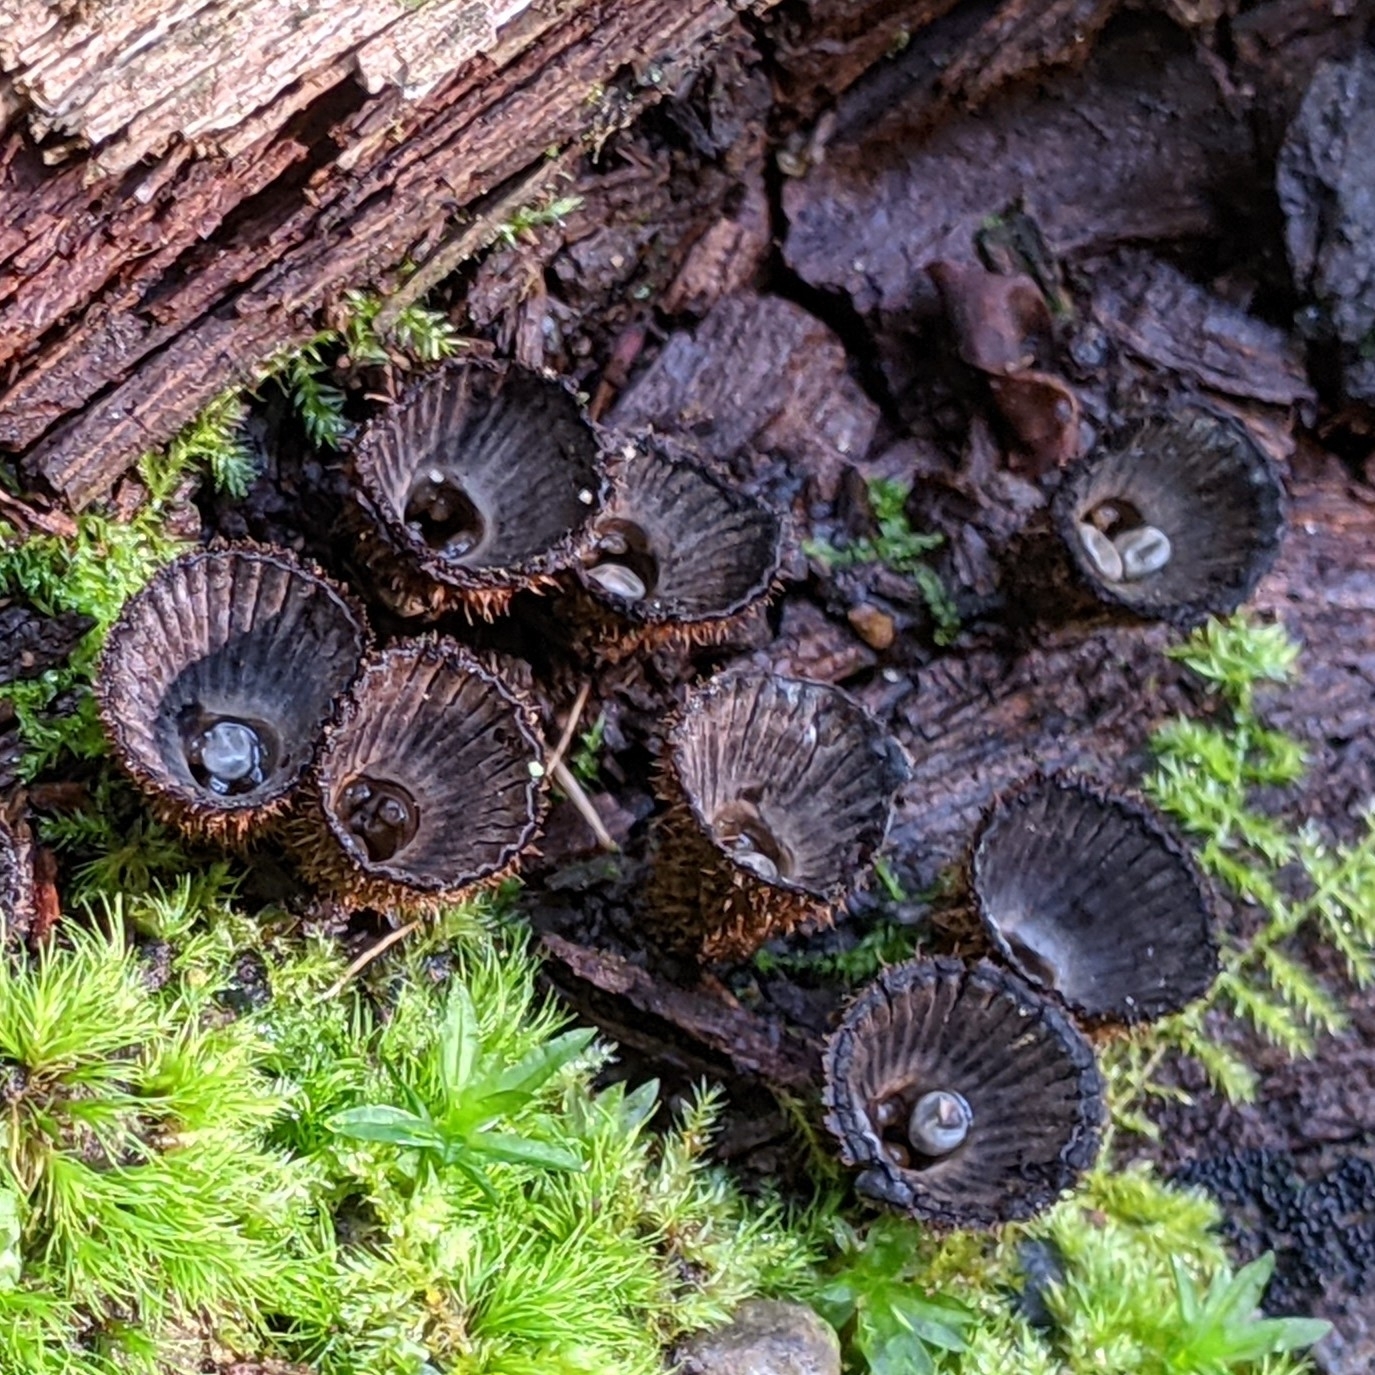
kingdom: Fungi
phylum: Basidiomycota
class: Agaricomycetes
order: Agaricales
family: Agaricaceae
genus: Cyathus
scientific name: Cyathus striatus
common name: Fluted bird's nest
